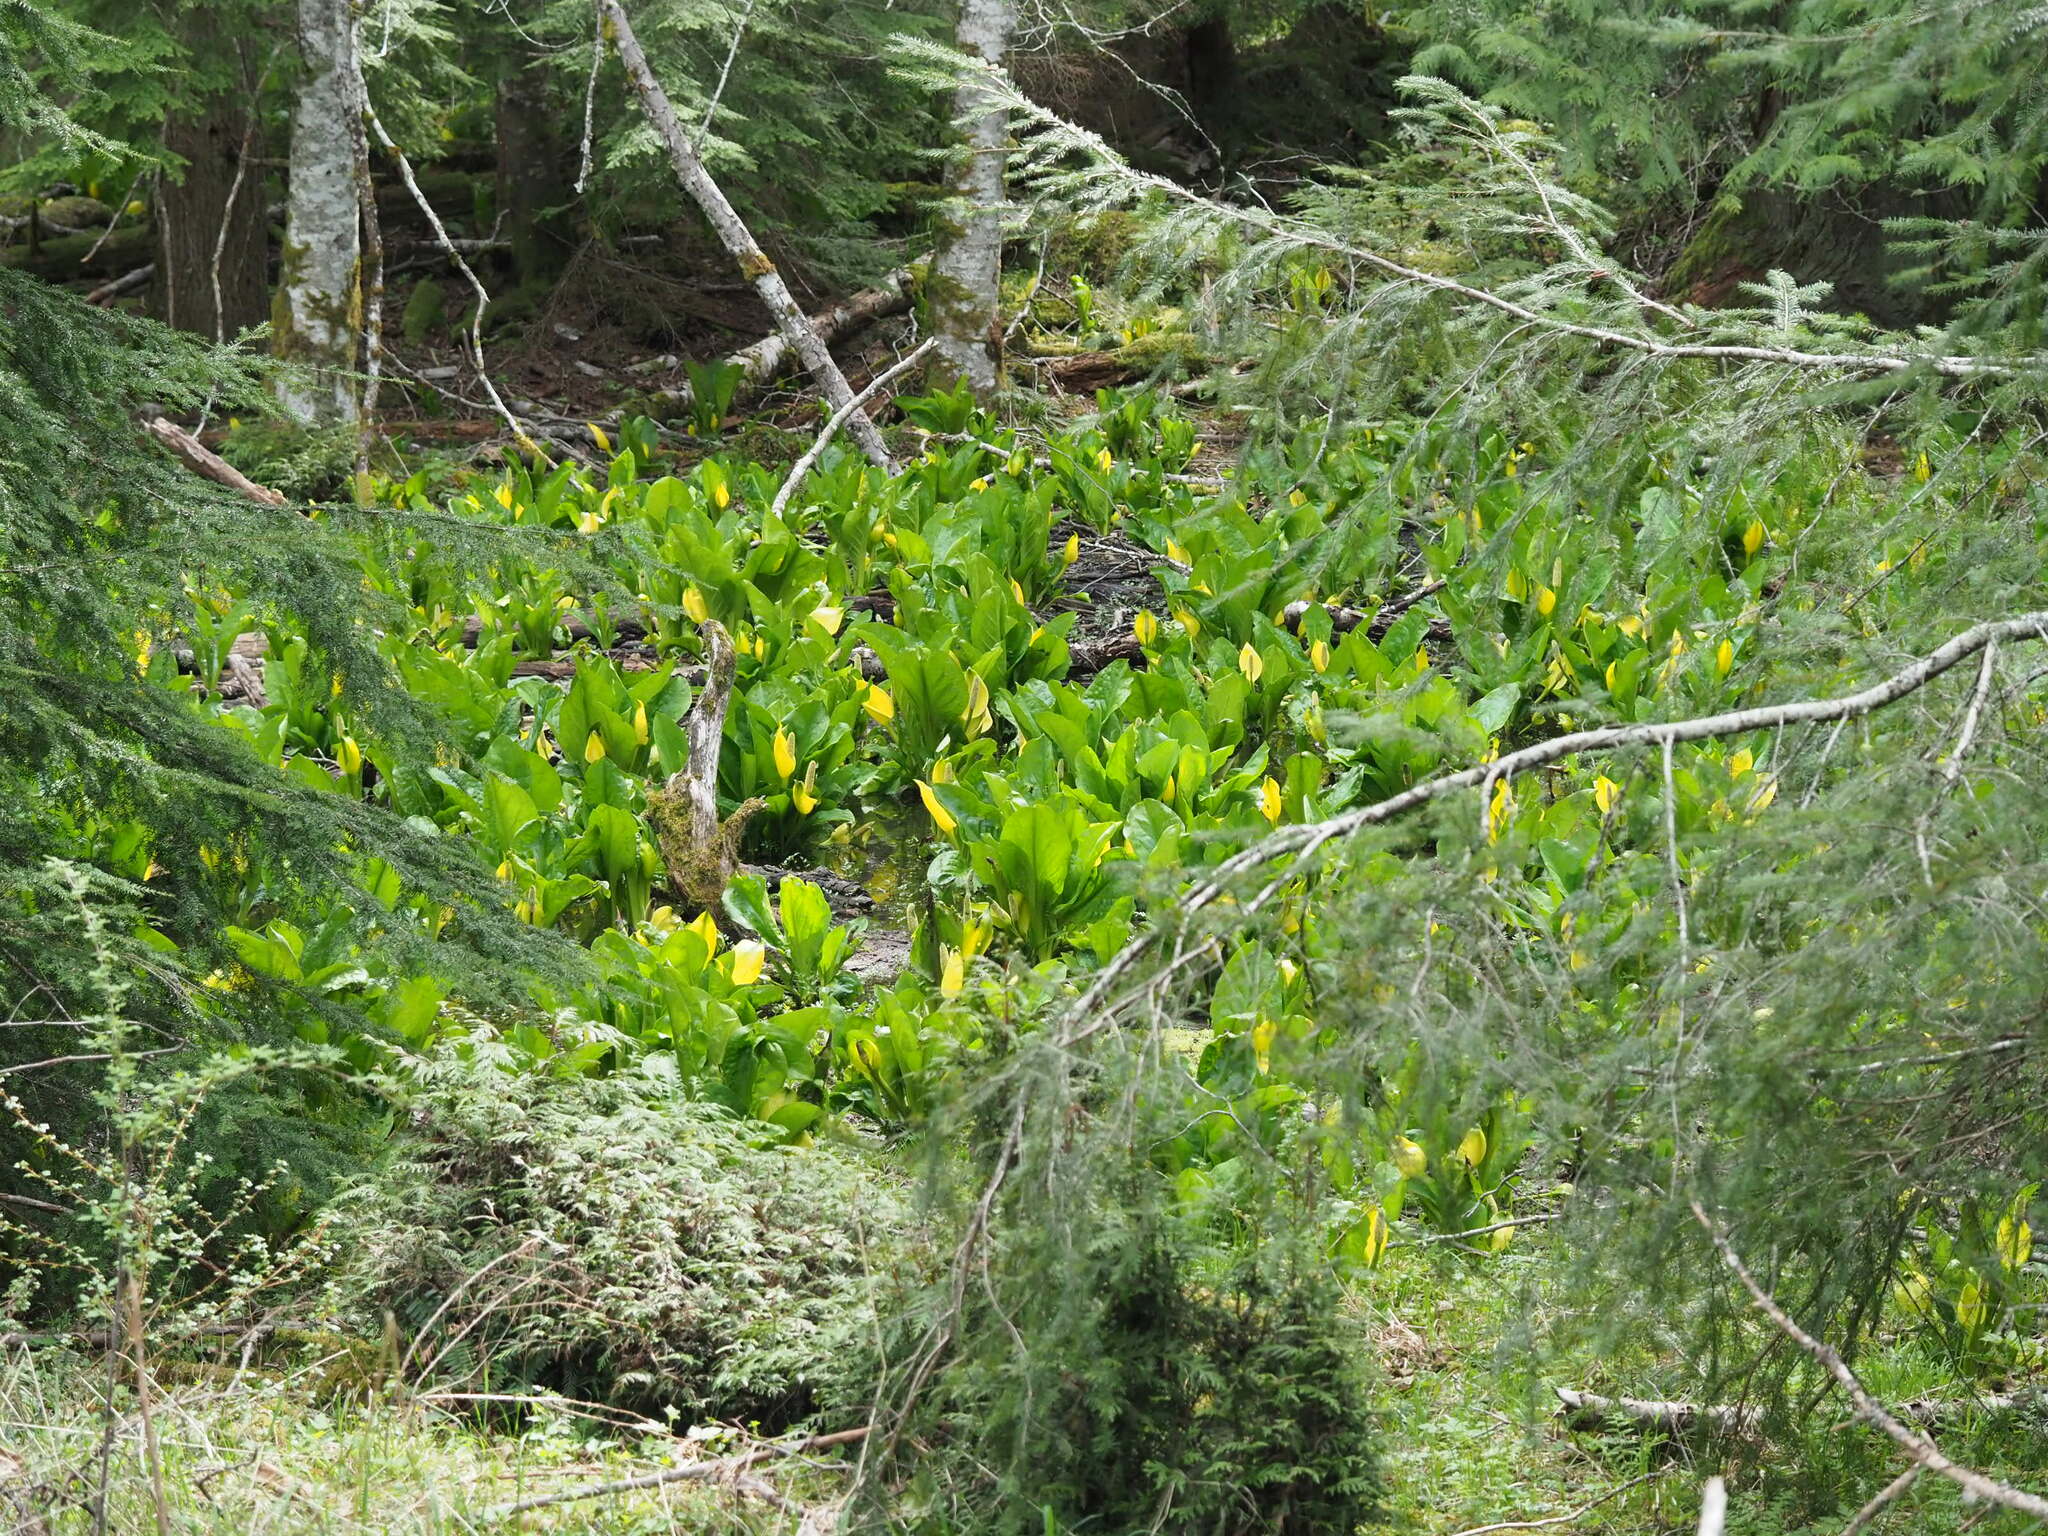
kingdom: Plantae
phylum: Tracheophyta
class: Liliopsida
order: Alismatales
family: Araceae
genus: Lysichiton
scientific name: Lysichiton americanus
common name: American skunk cabbage
